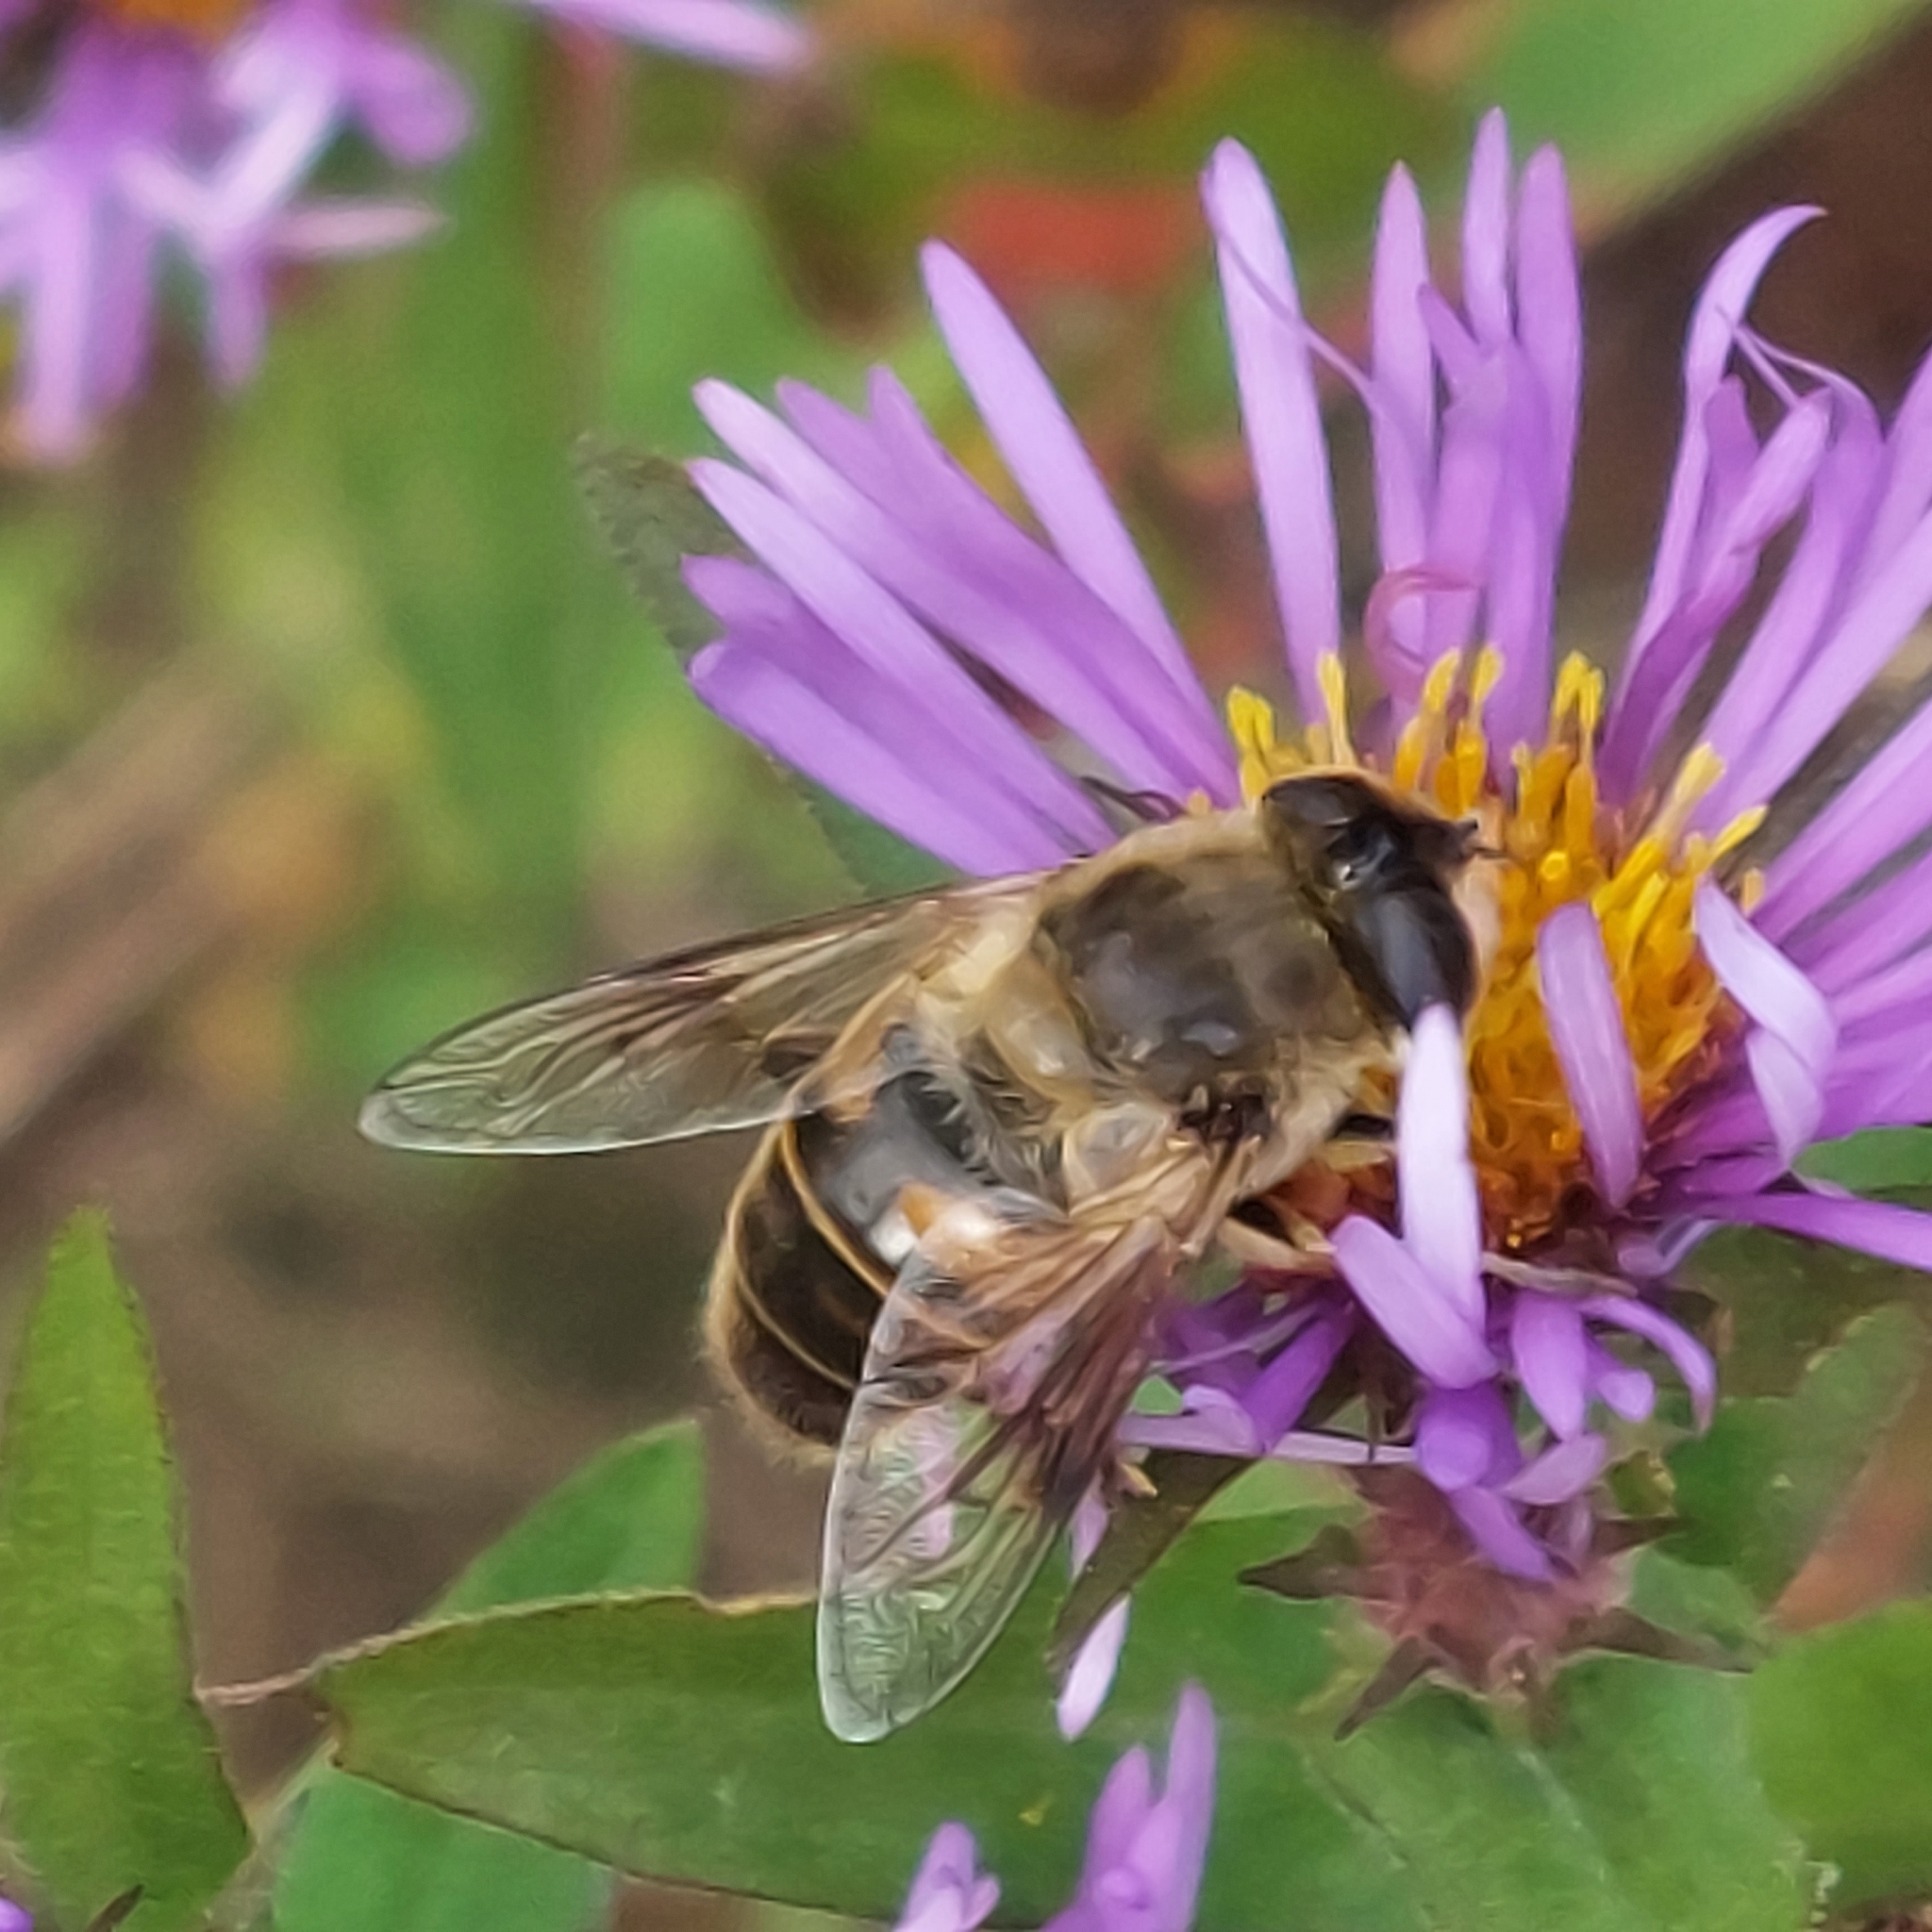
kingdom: Animalia
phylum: Arthropoda
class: Insecta
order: Diptera
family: Syrphidae
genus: Eristalis
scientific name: Eristalis tenax
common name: Drone fly
